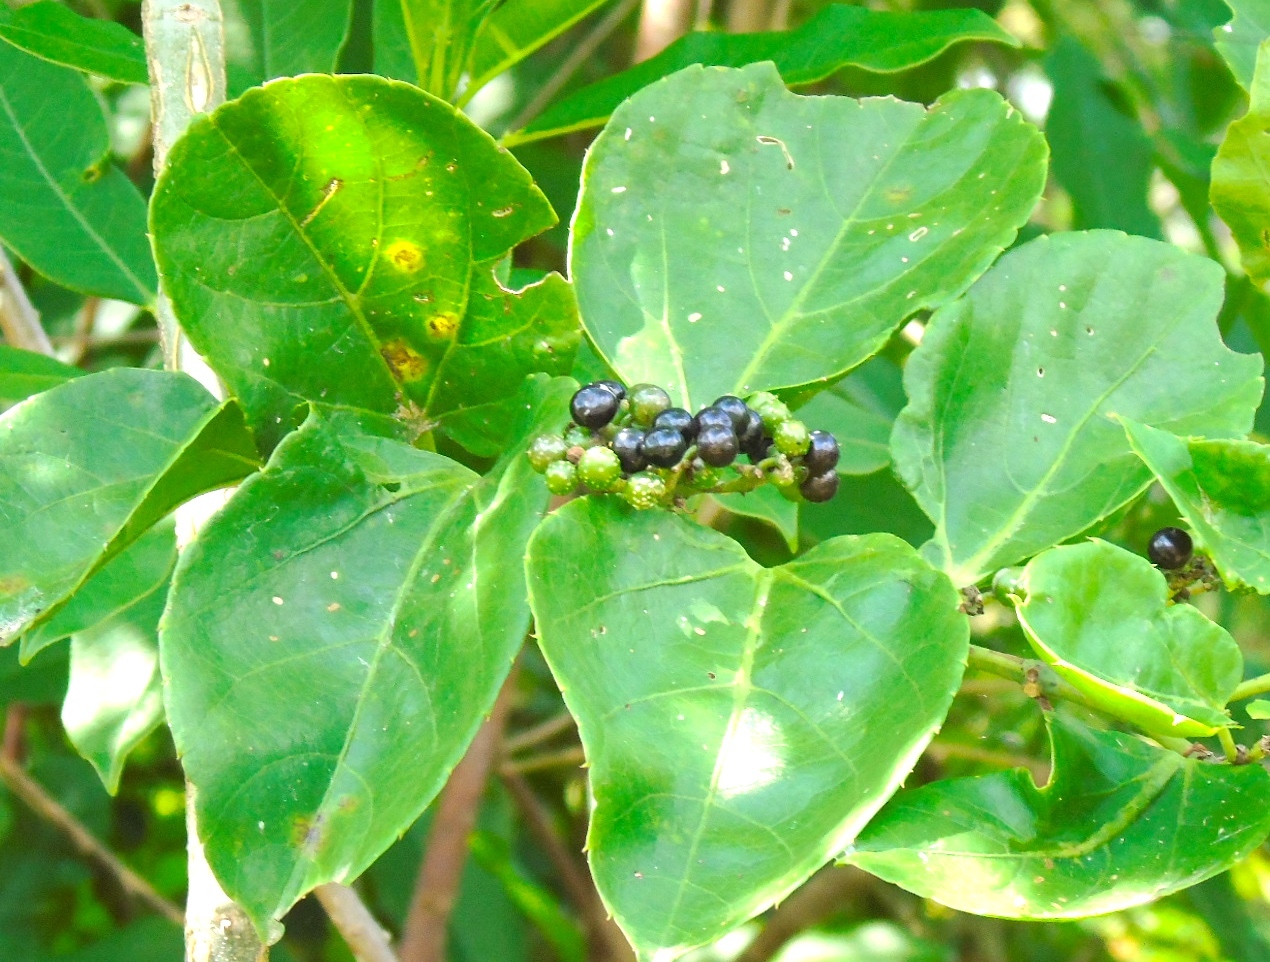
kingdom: Plantae
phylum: Tracheophyta
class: Magnoliopsida
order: Vitales
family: Vitaceae
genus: Cissus
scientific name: Cissus verticillata
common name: Princess vine
